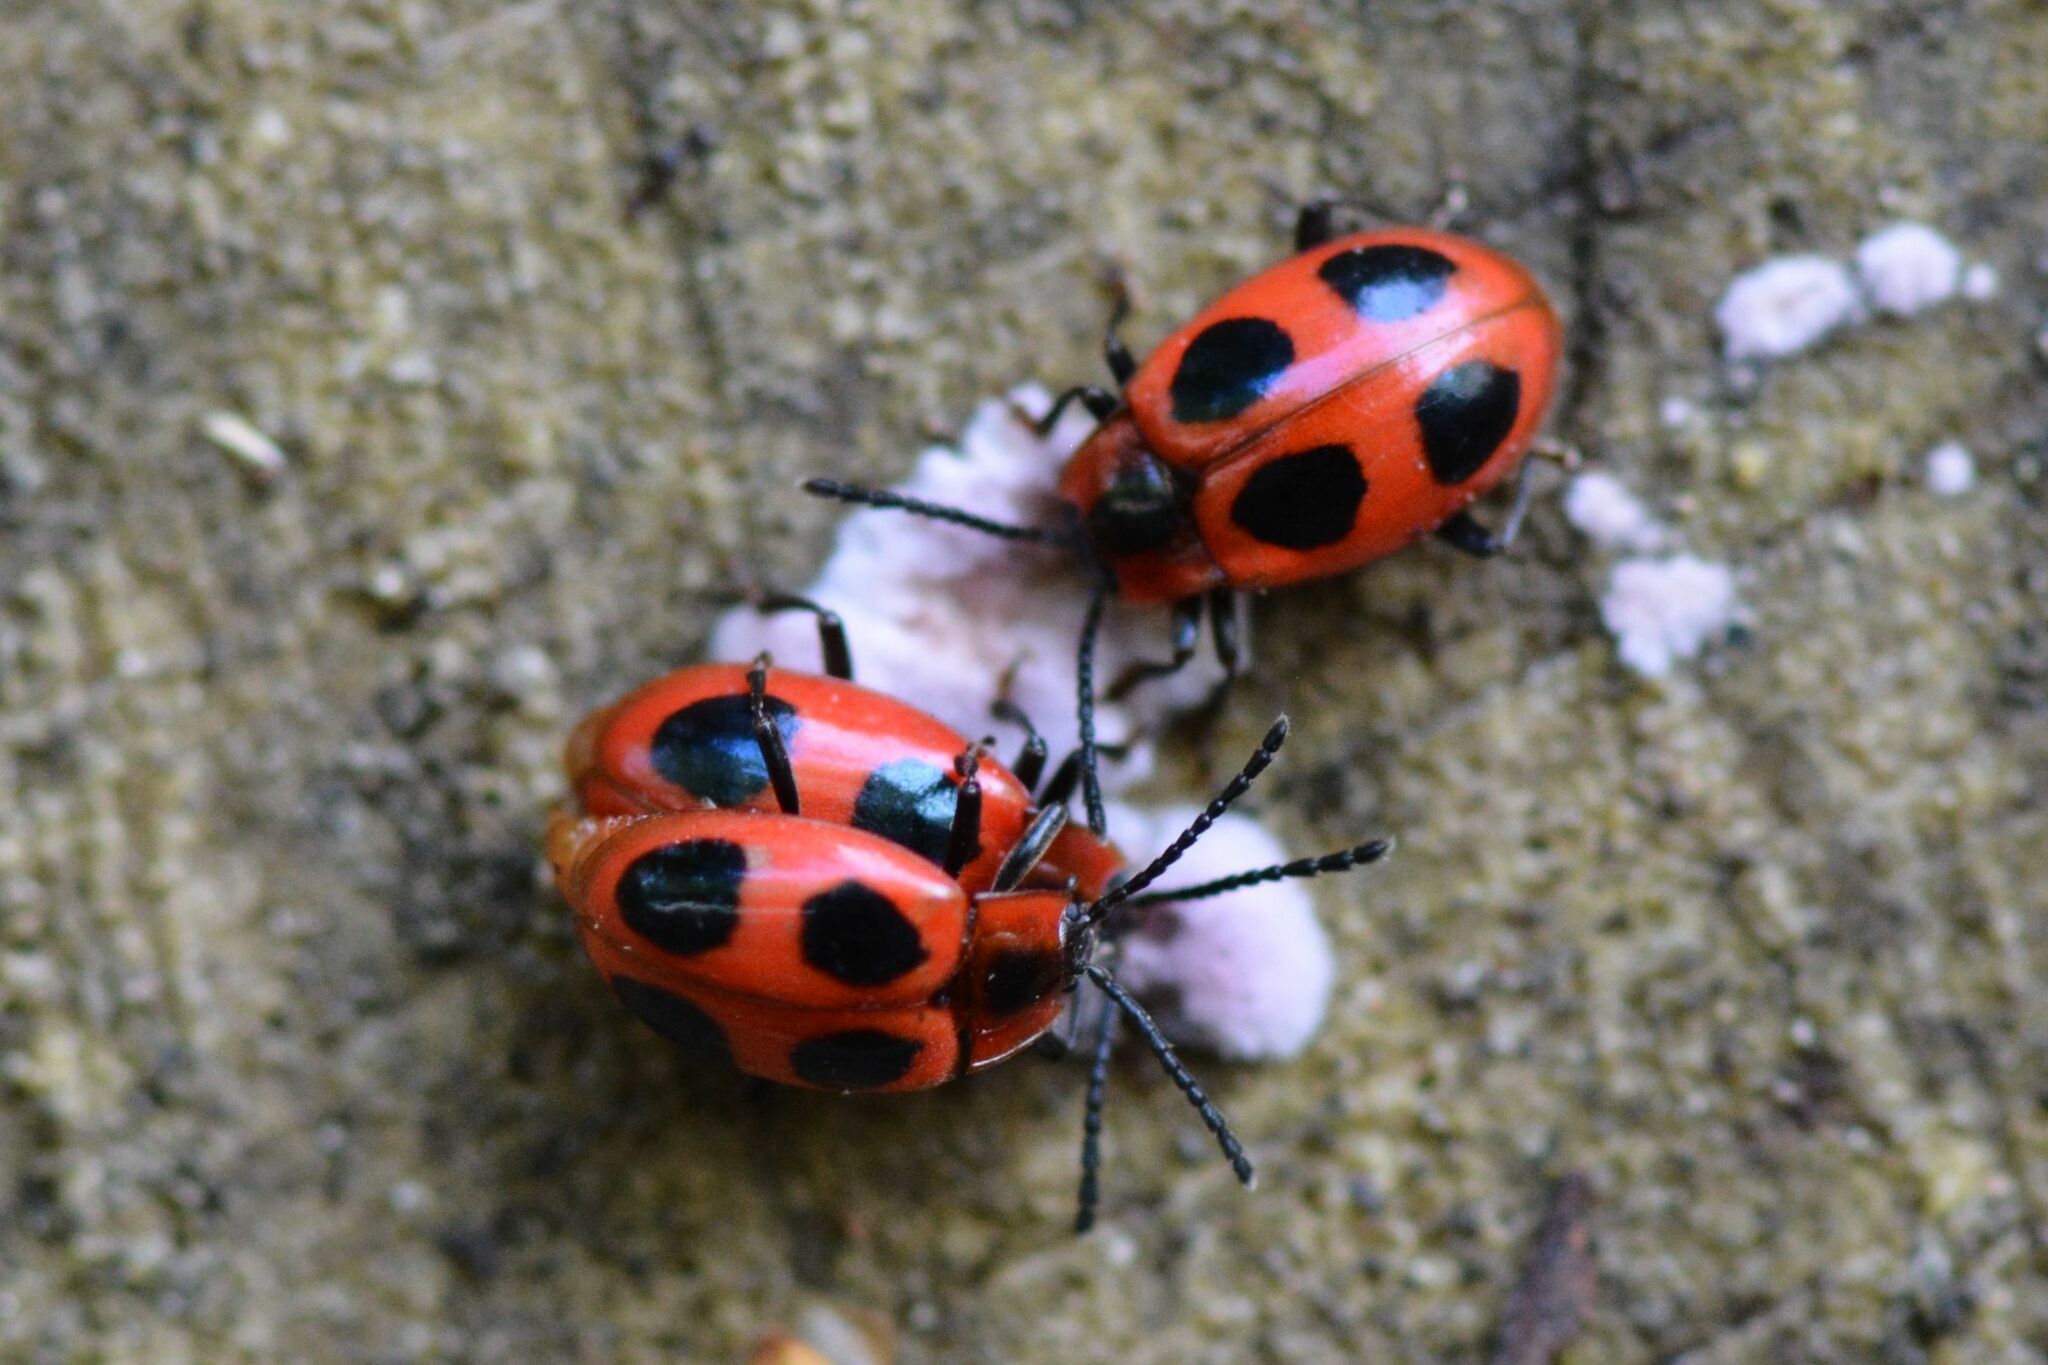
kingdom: Animalia
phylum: Arthropoda
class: Insecta
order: Coleoptera
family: Endomychidae
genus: Endomychus
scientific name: Endomychus coccineus
